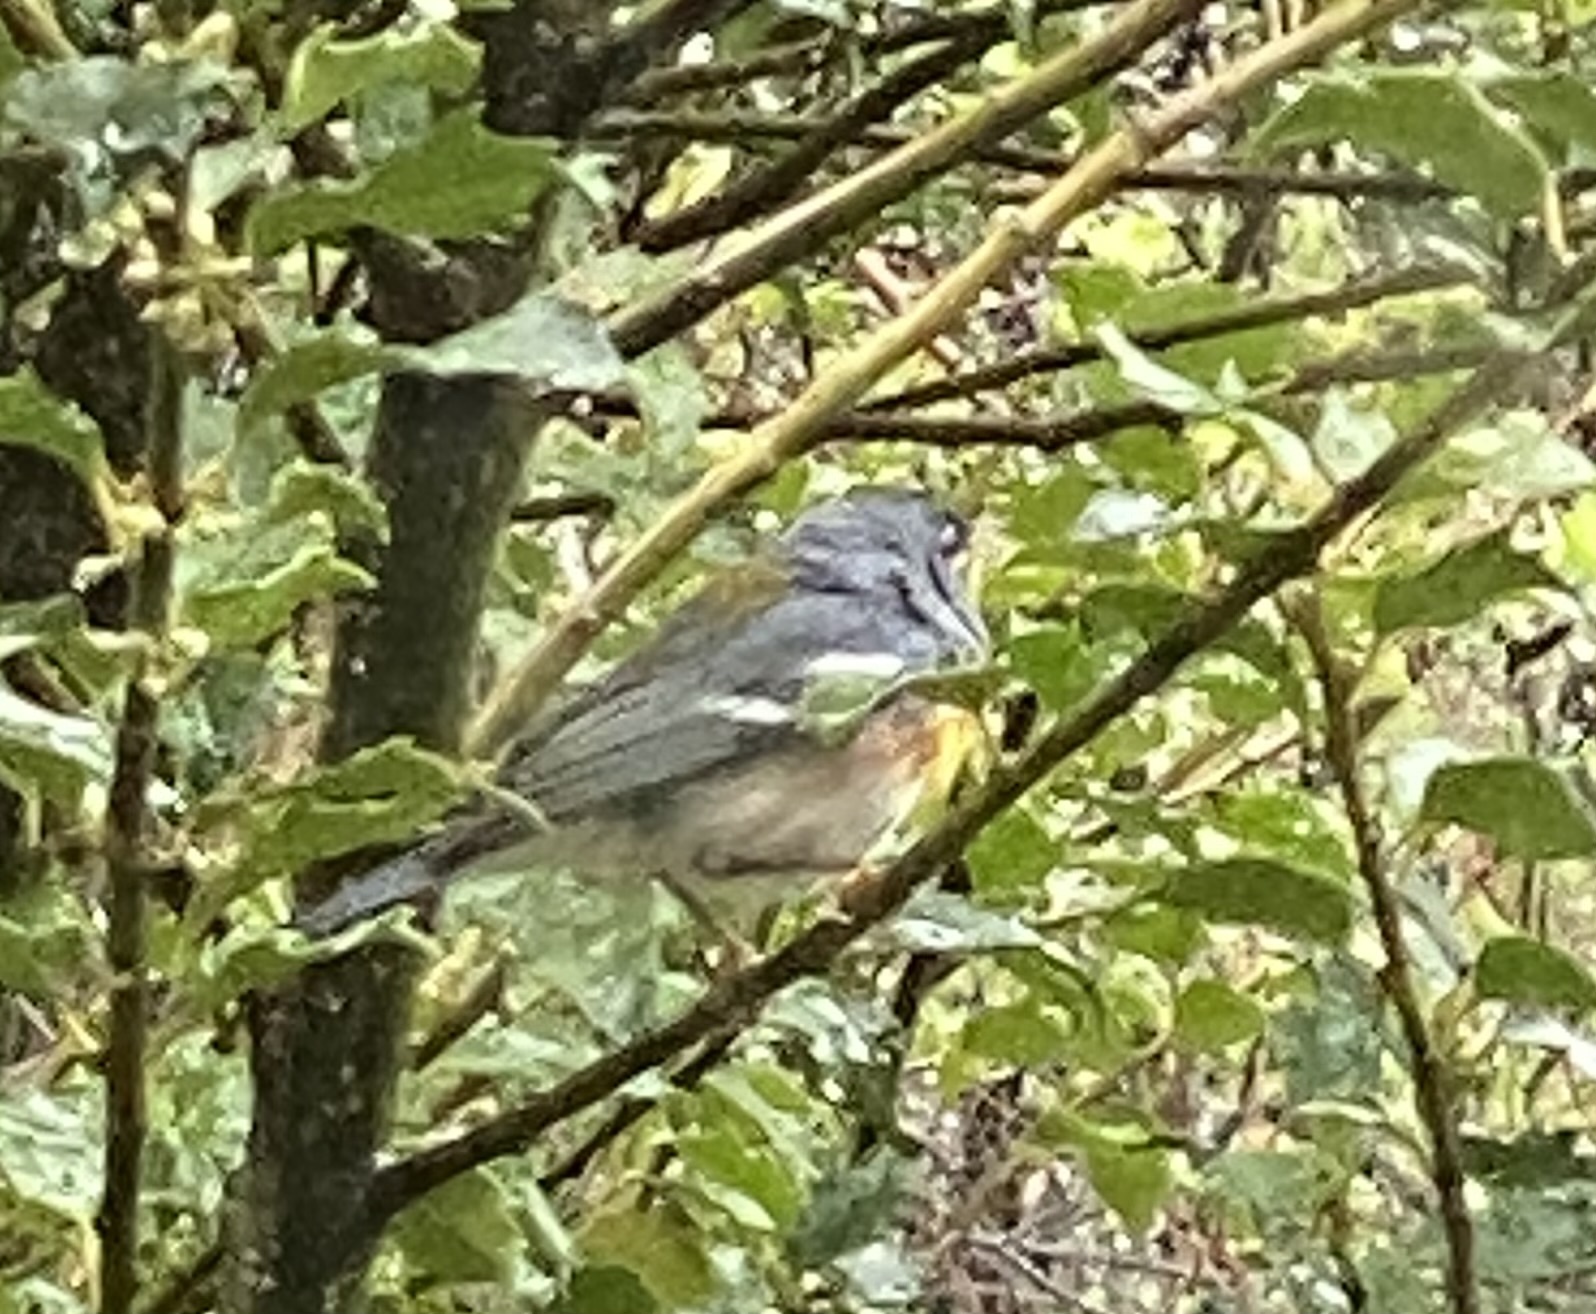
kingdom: Animalia
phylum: Chordata
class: Aves
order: Passeriformes
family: Parulidae
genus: Setophaga
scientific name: Setophaga americana
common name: Northern parula
